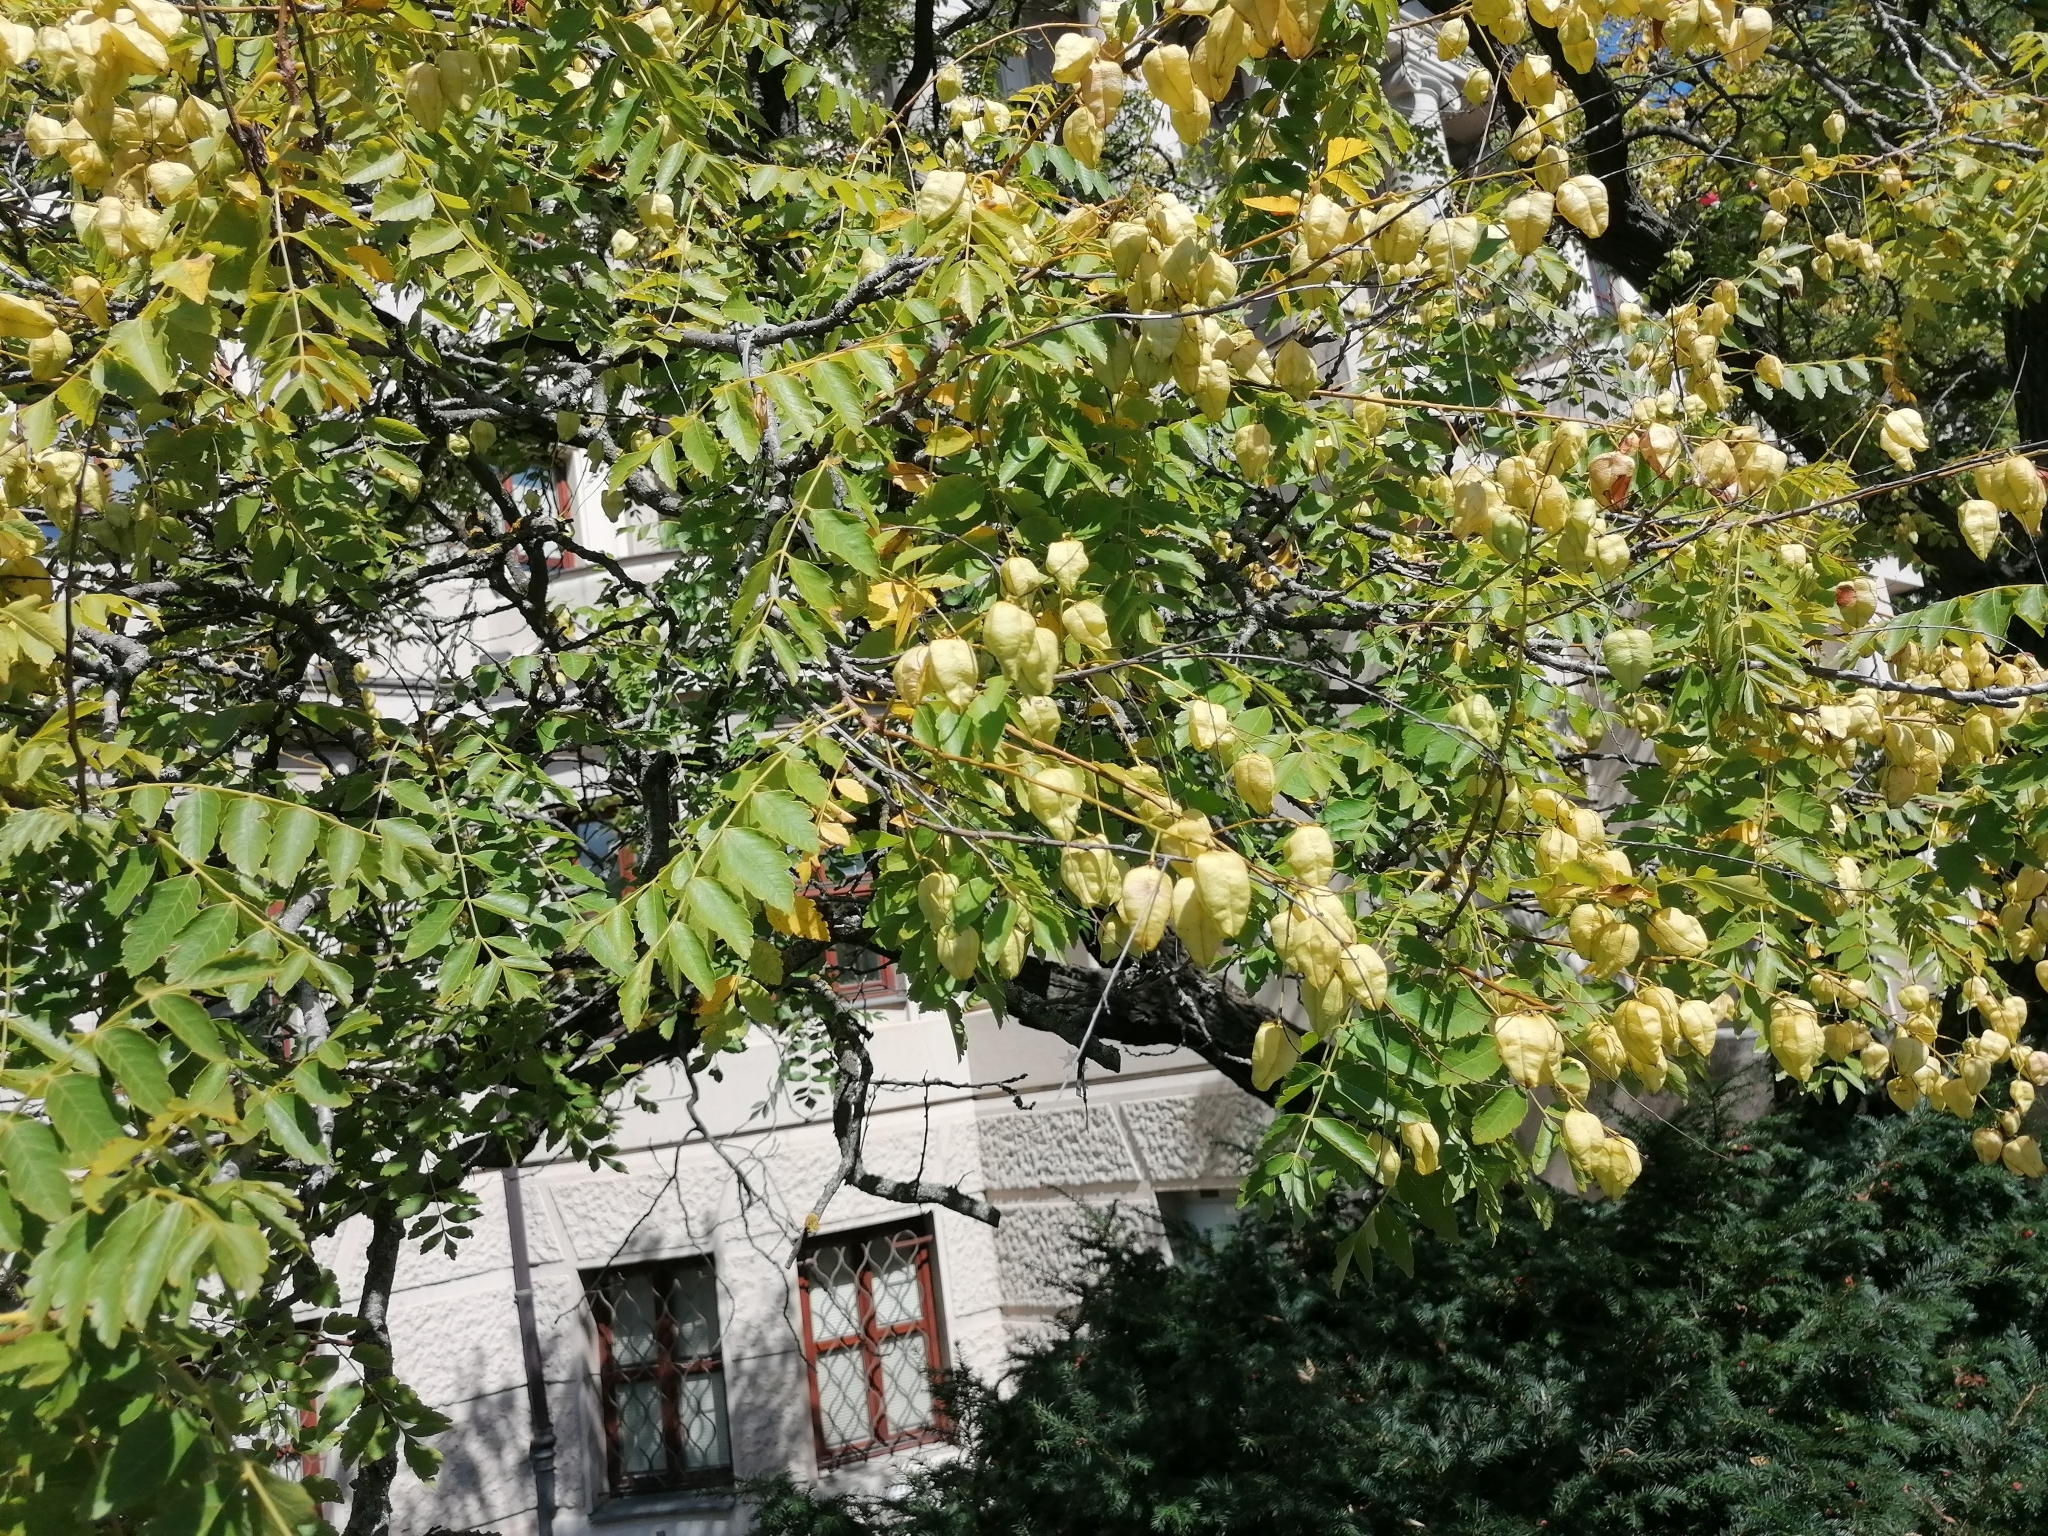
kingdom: Plantae
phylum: Tracheophyta
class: Magnoliopsida
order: Sapindales
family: Sapindaceae
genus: Koelreuteria
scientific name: Koelreuteria paniculata
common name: Pride-of-india
